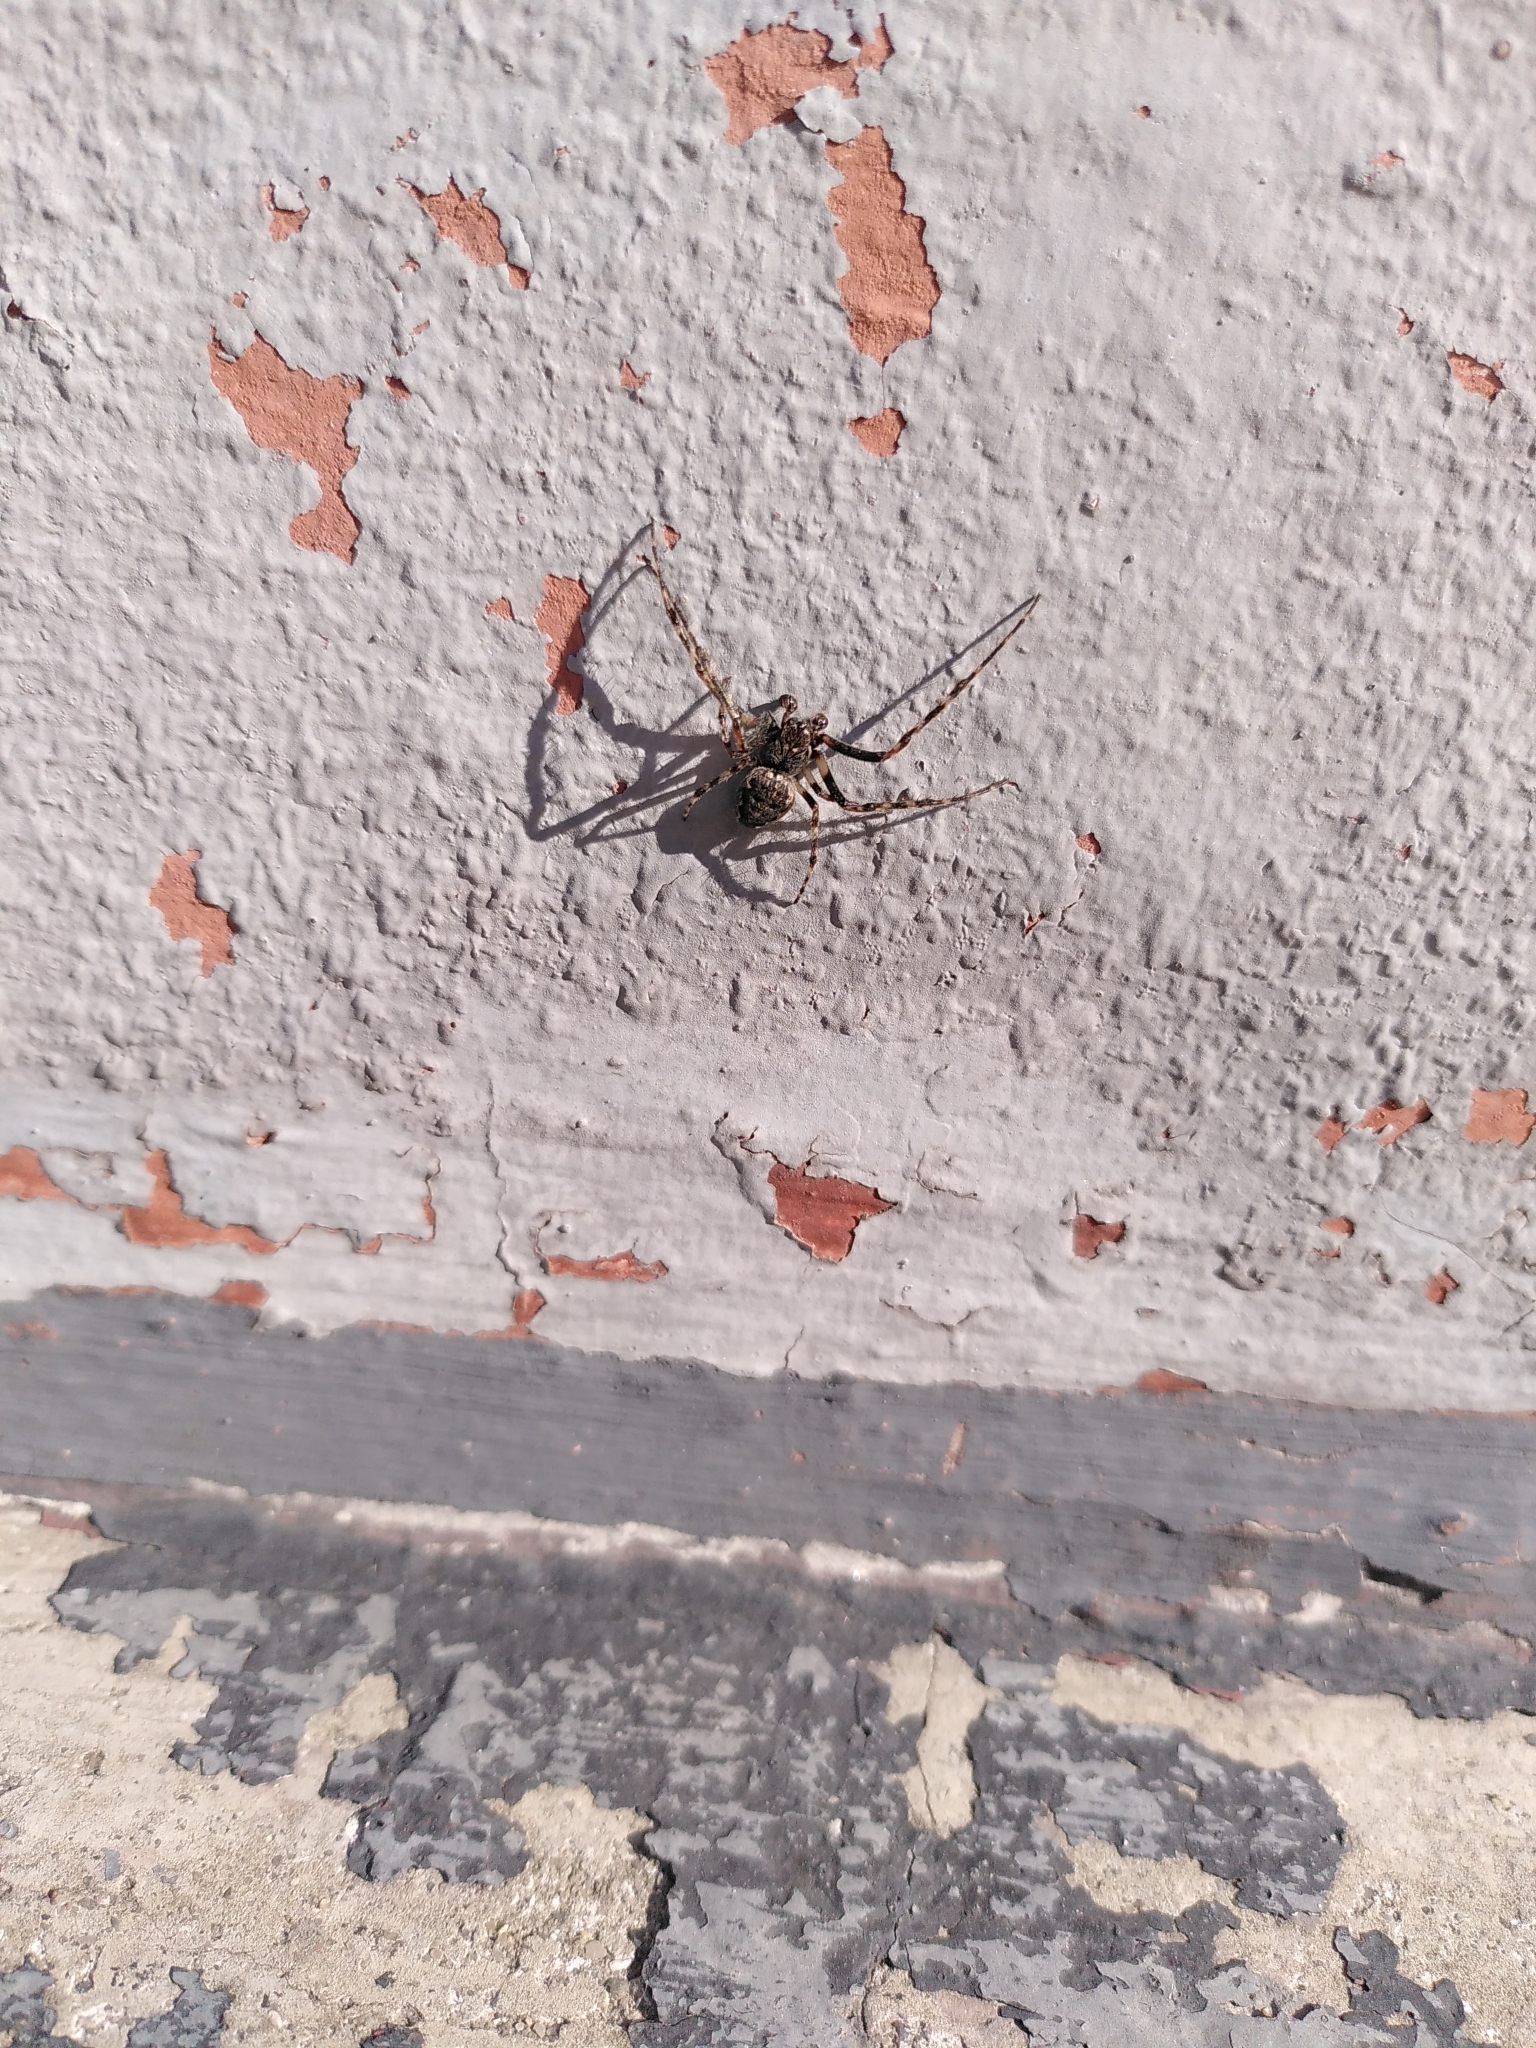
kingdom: Animalia
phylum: Arthropoda
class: Arachnida
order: Araneae
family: Araneidae
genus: Nuctenea
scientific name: Nuctenea umbratica
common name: Toad spider
